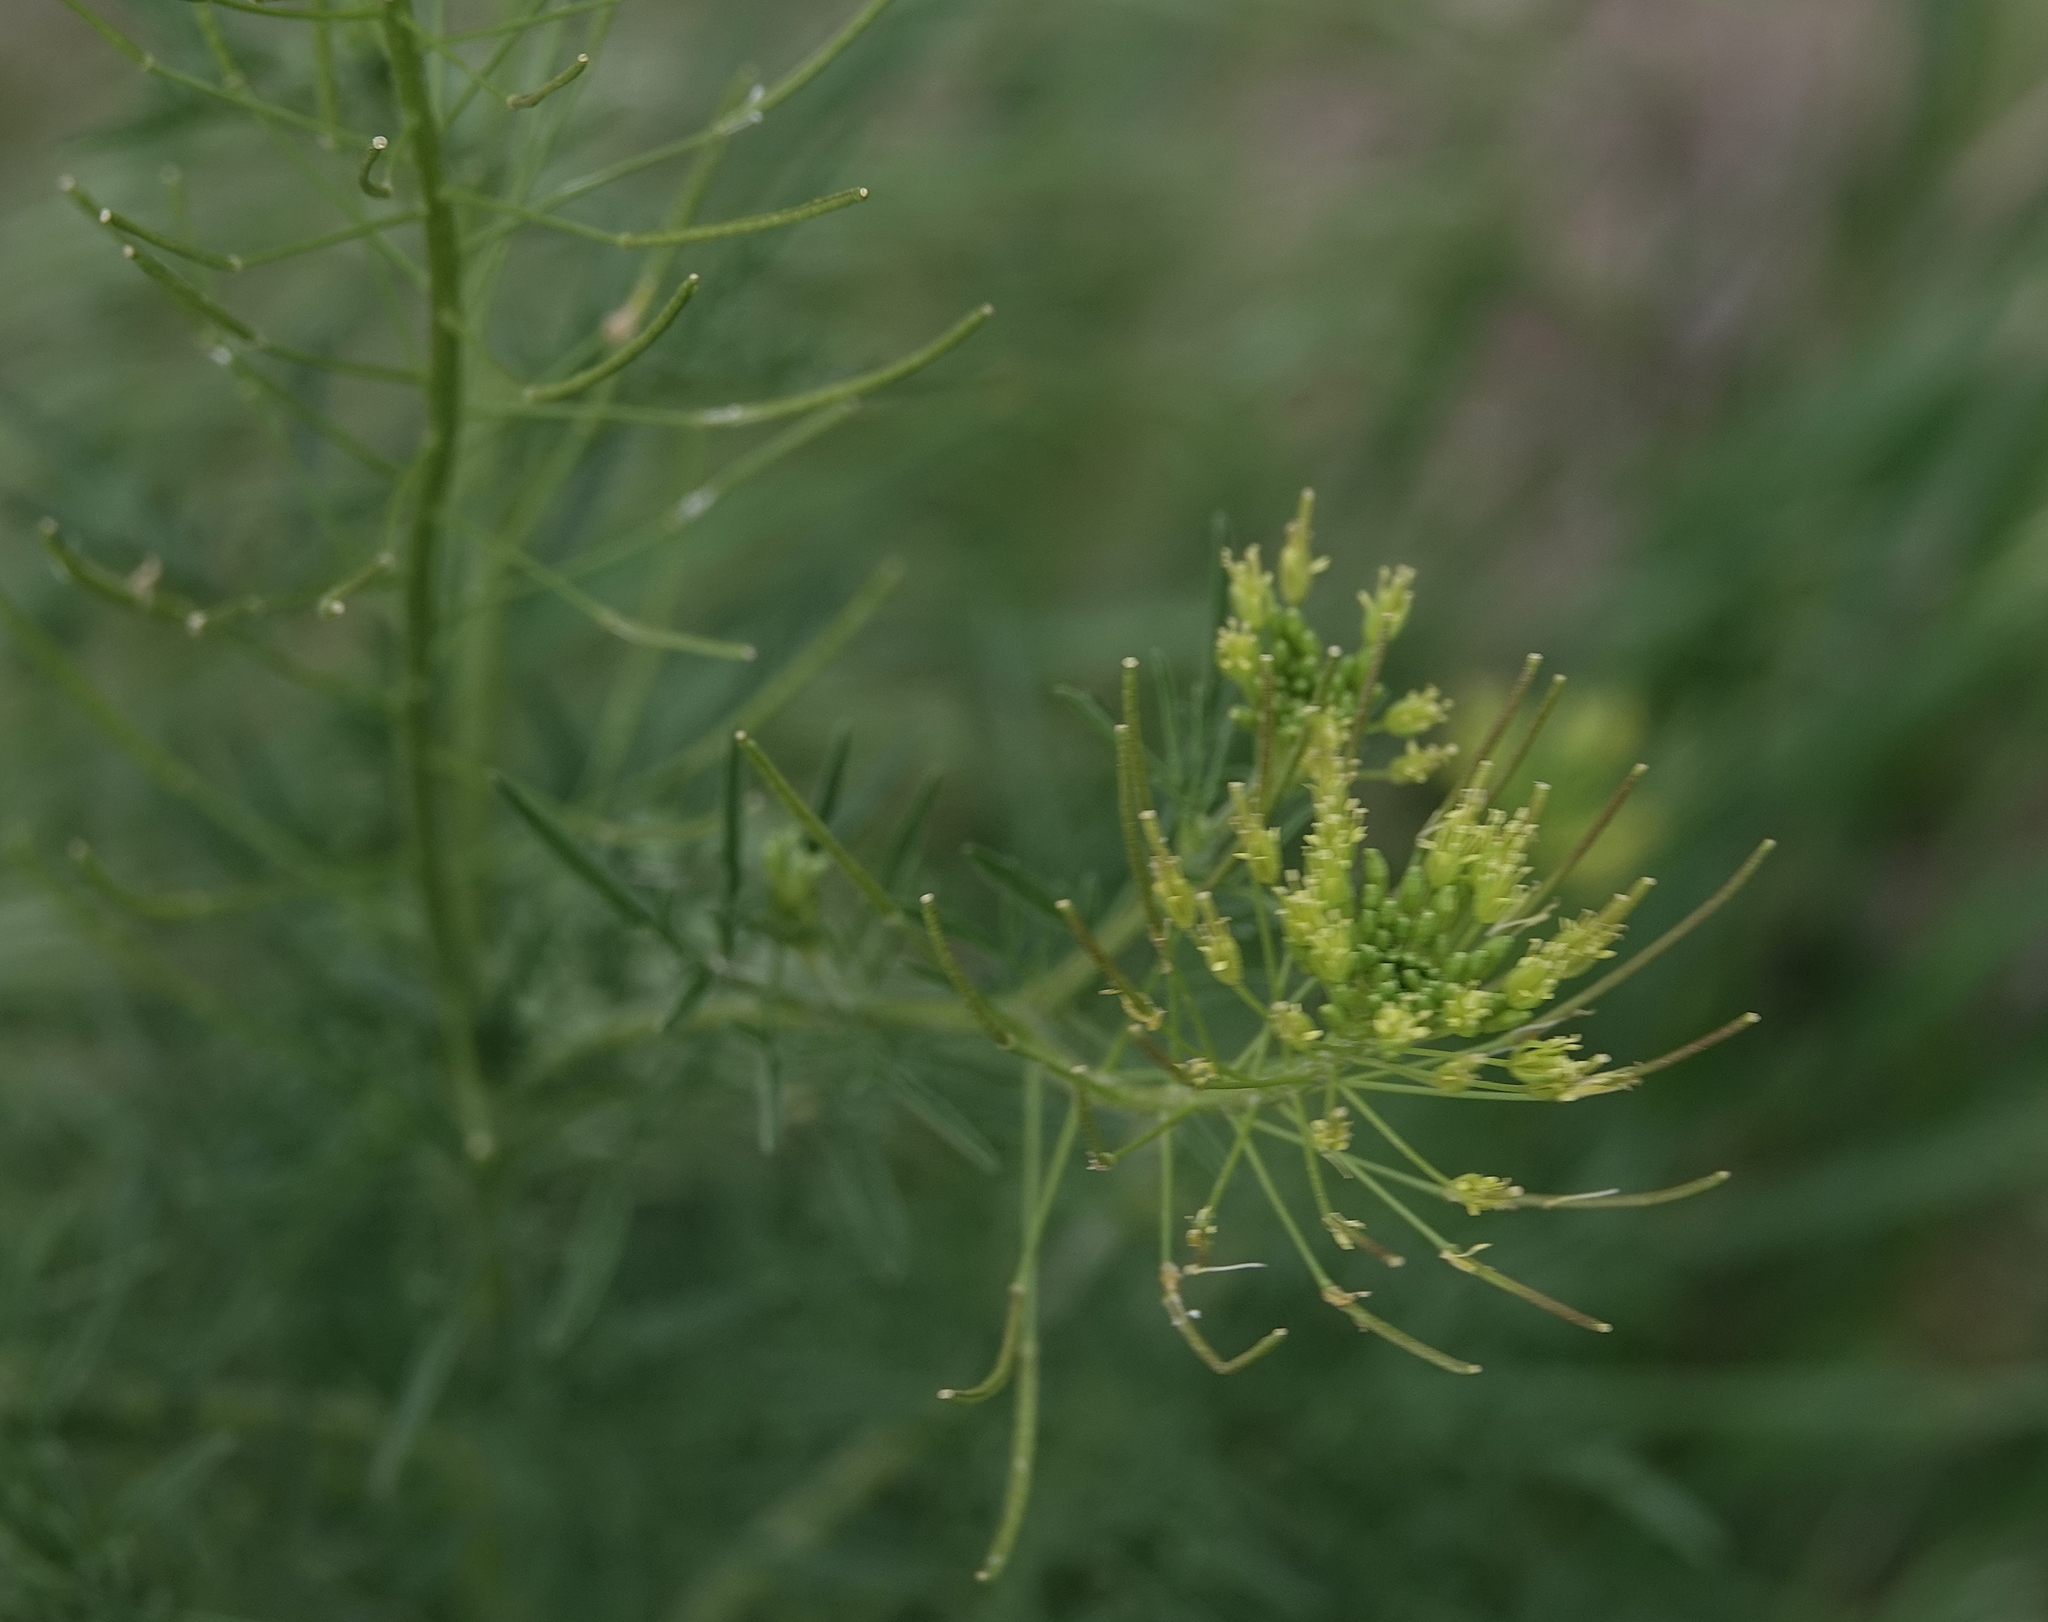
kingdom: Plantae
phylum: Tracheophyta
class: Magnoliopsida
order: Brassicales
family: Brassicaceae
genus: Descurainia
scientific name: Descurainia sophia
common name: Flixweed
